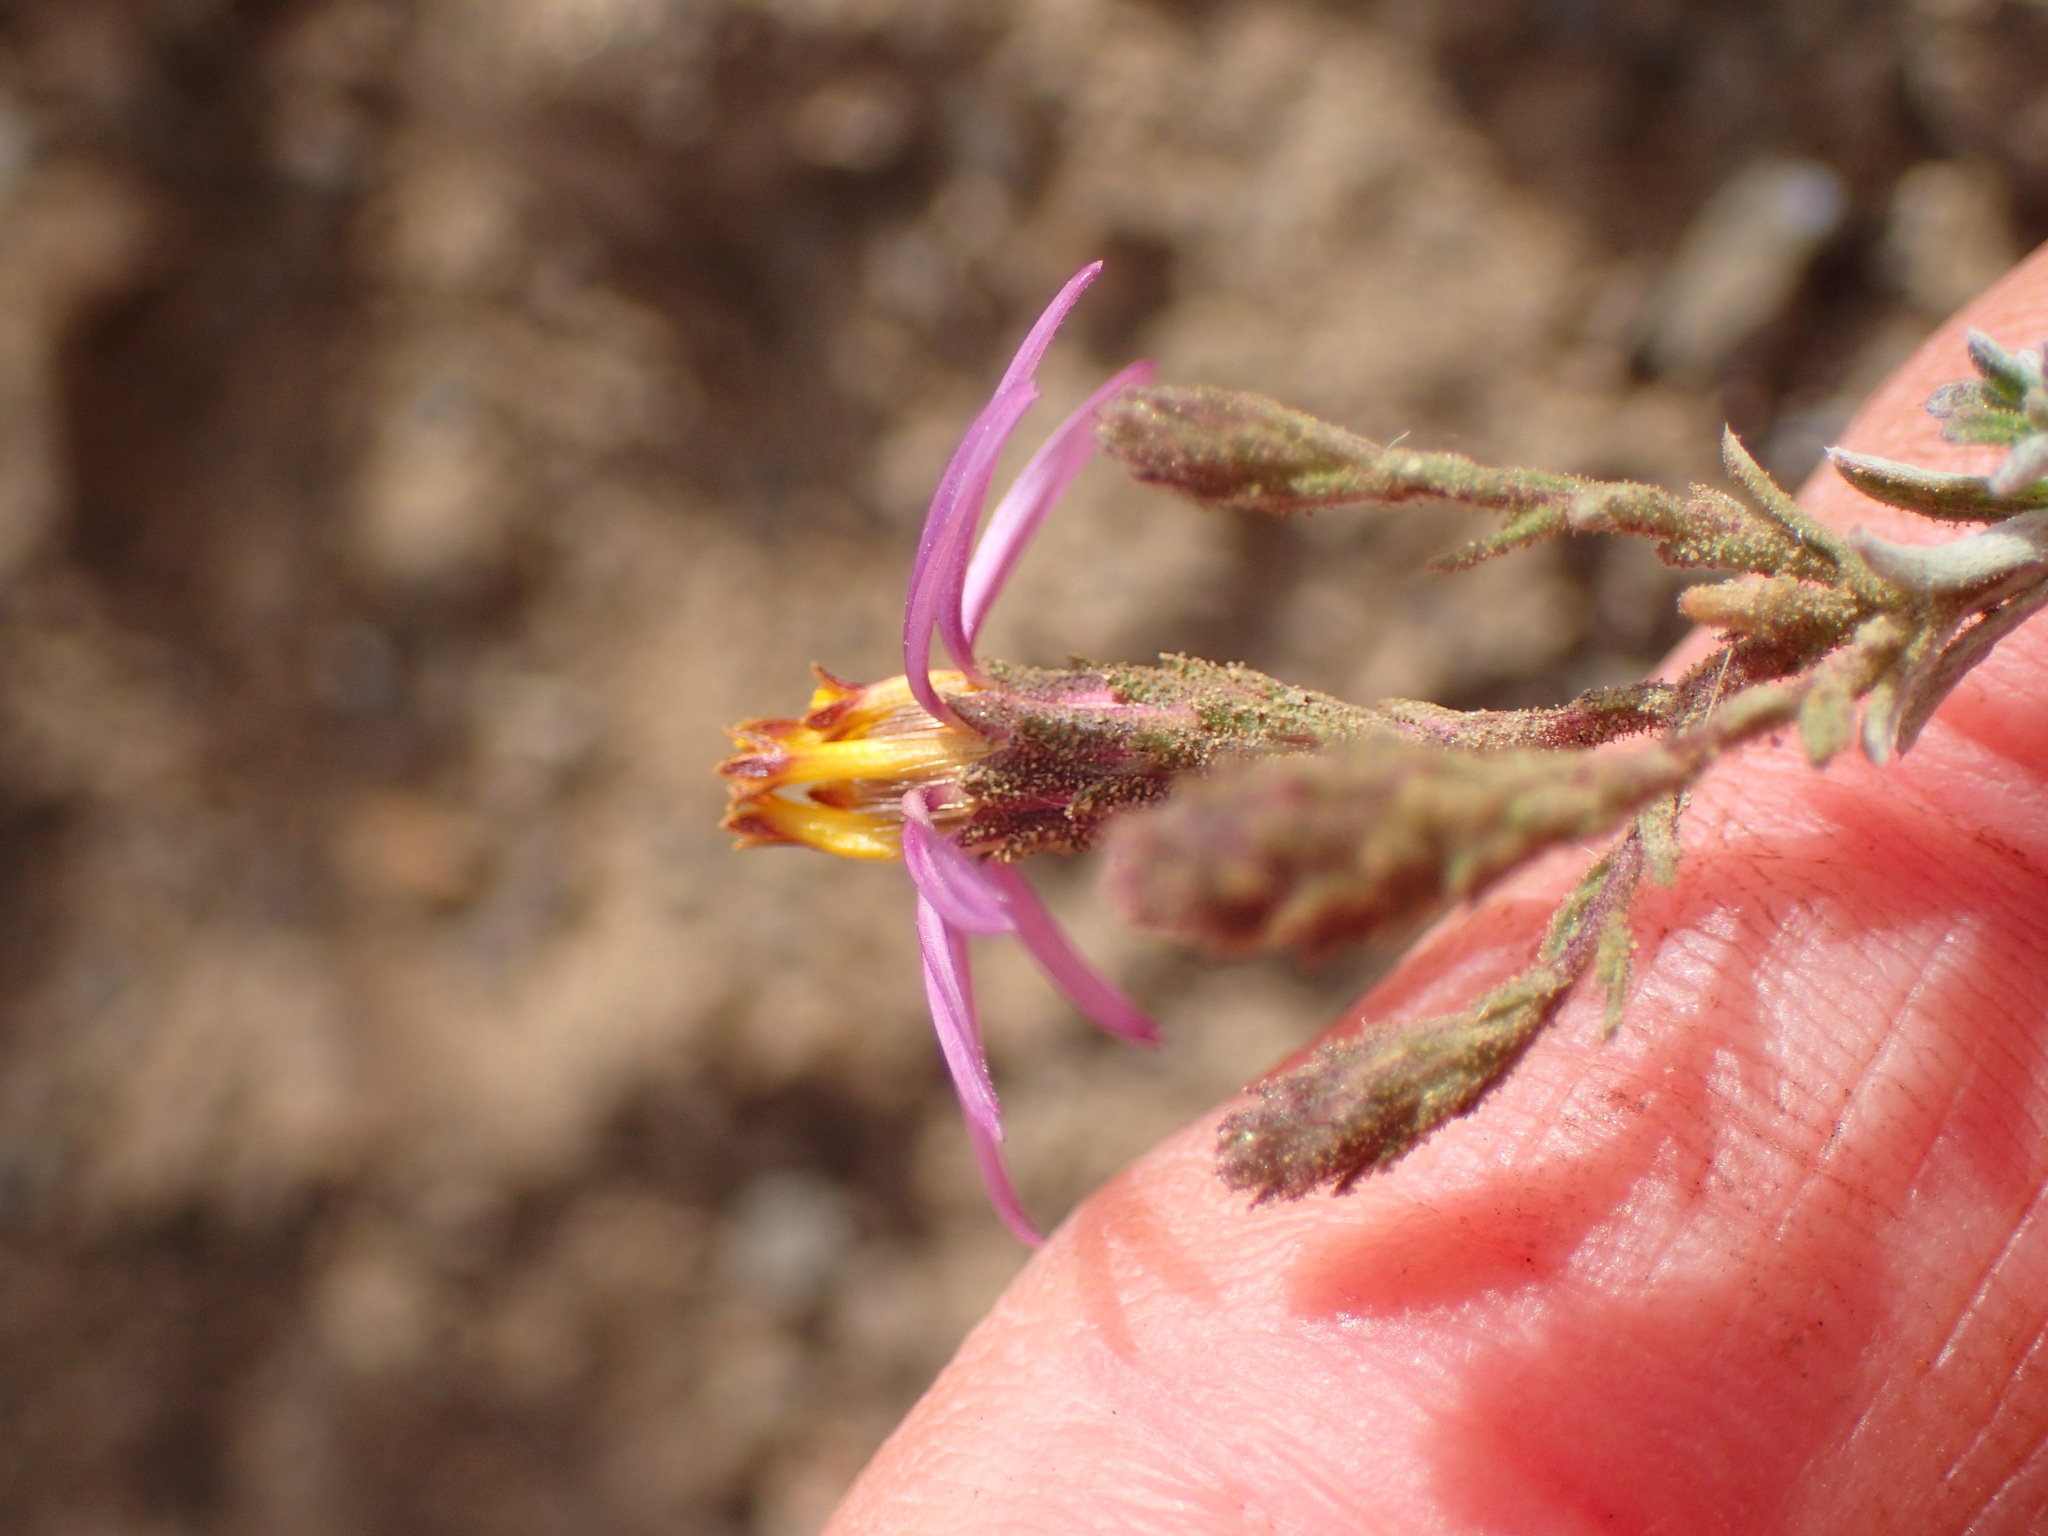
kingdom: Plantae
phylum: Tracheophyta
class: Magnoliopsida
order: Asterales
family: Asteraceae
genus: Corethrogyne
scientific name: Corethrogyne filaginifolia
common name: Sand-aster
